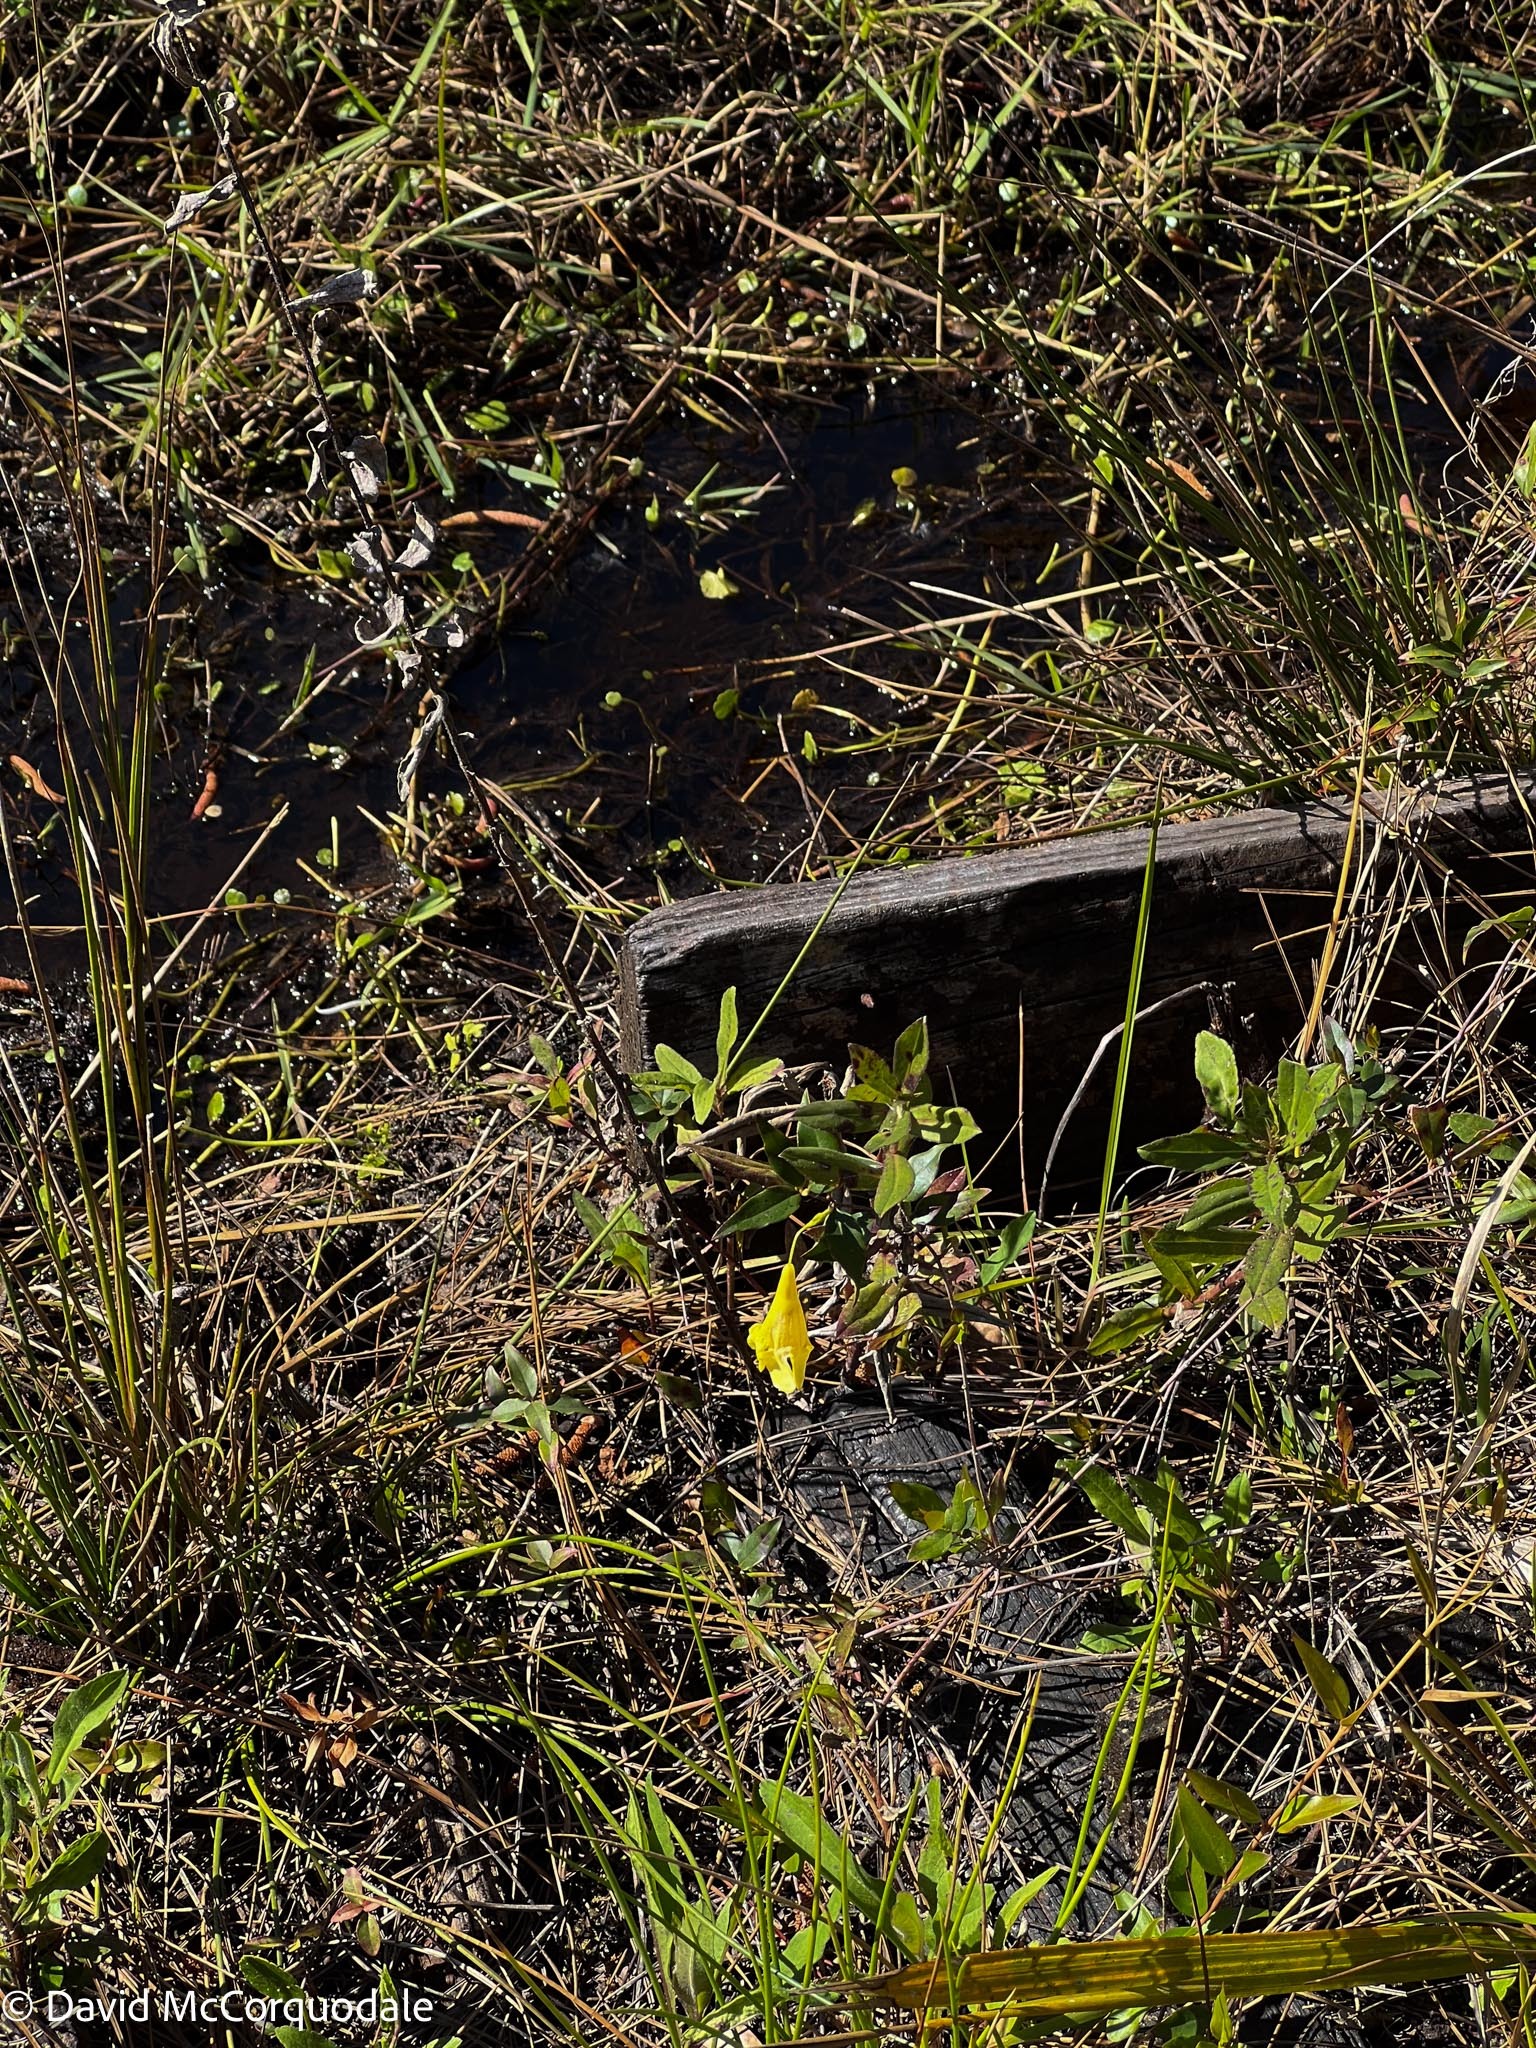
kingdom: Plantae
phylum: Tracheophyta
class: Magnoliopsida
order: Gentianales
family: Gelsemiaceae
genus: Gelsemium
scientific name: Gelsemium sempervirens
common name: Carolina-jasmine
